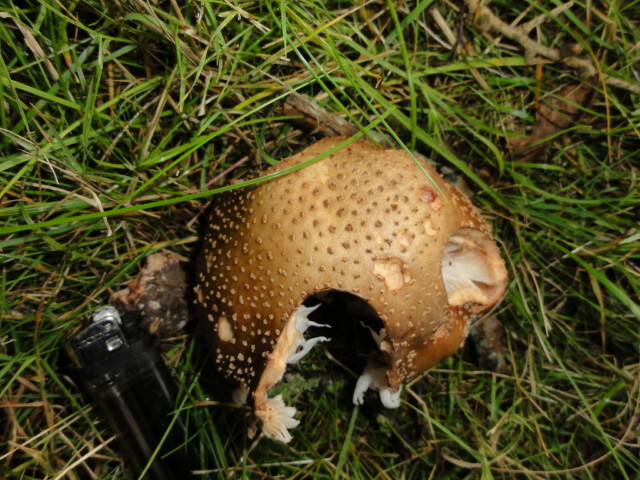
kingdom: Fungi
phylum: Basidiomycota
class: Agaricomycetes
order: Agaricales
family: Amanitaceae
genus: Amanita
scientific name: Amanita rubescens
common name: Blusher
